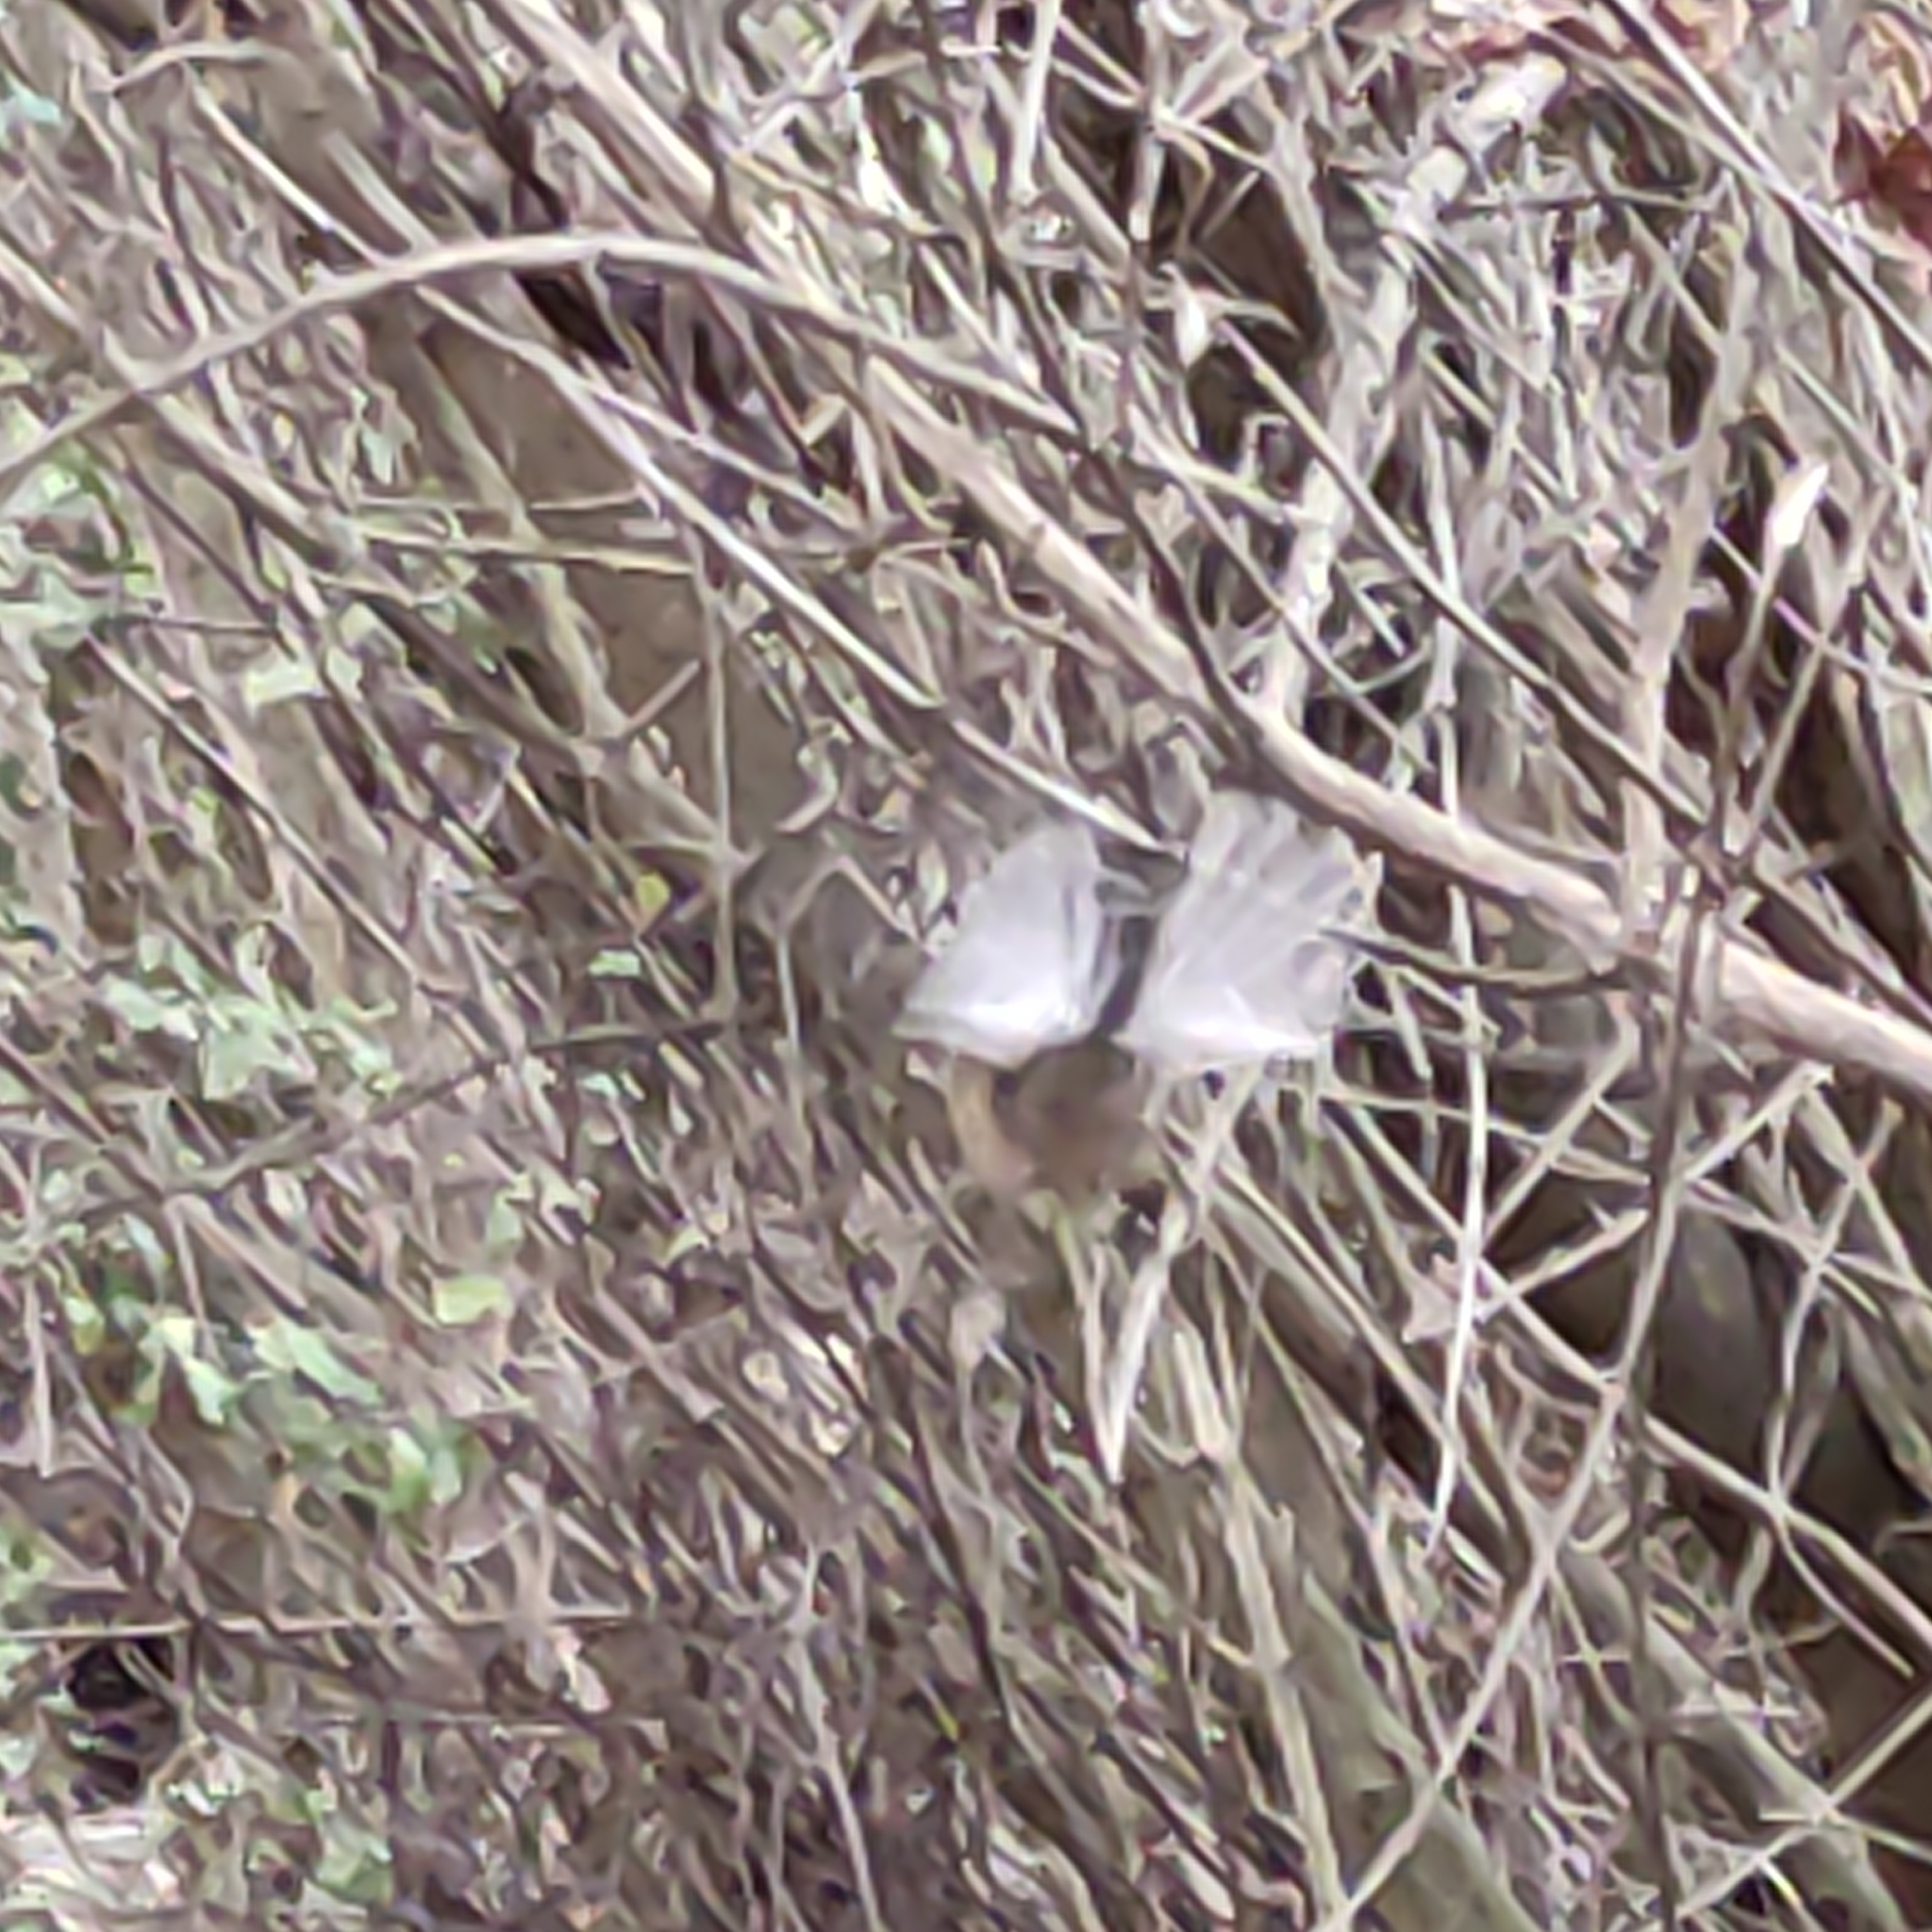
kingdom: Animalia
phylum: Chordata
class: Aves
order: Passeriformes
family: Rhipiduridae
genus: Rhipidura
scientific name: Rhipidura fuliginosa
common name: New zealand fantail
